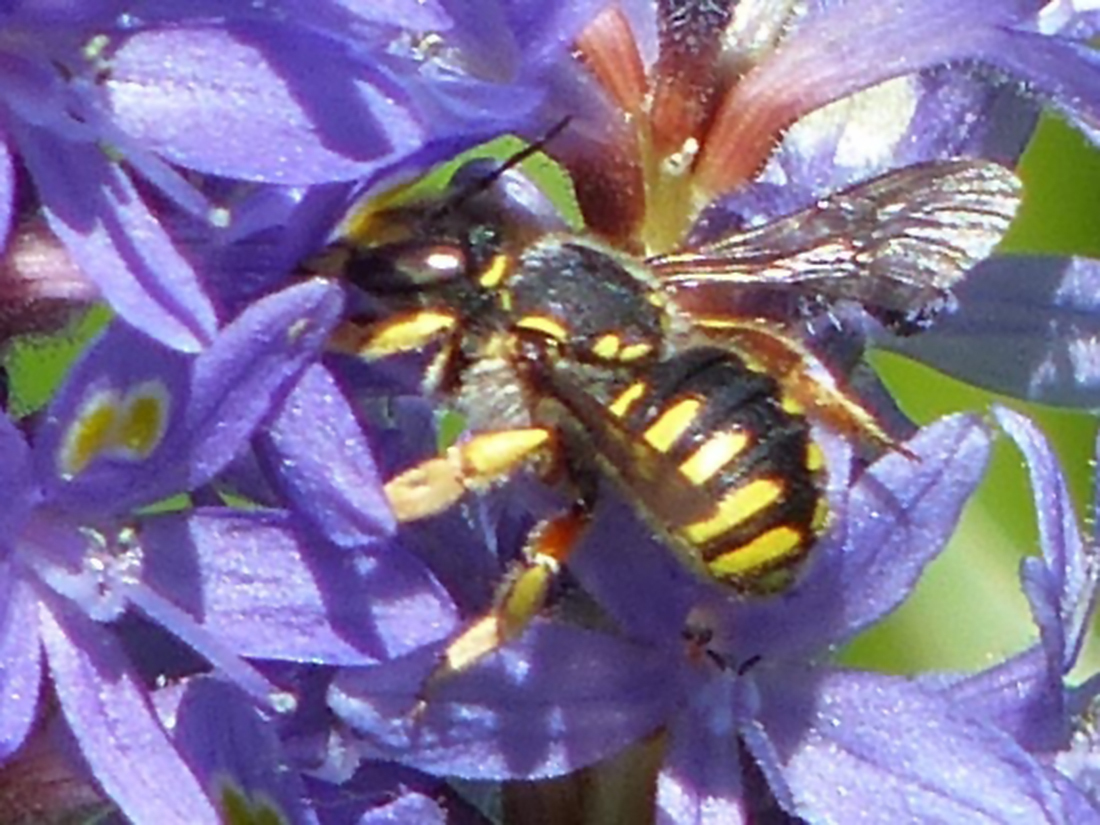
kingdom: Animalia
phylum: Arthropoda
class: Insecta
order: Hymenoptera
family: Megachilidae
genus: Anthidium
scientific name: Anthidium manicatum
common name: Wool carder bee
